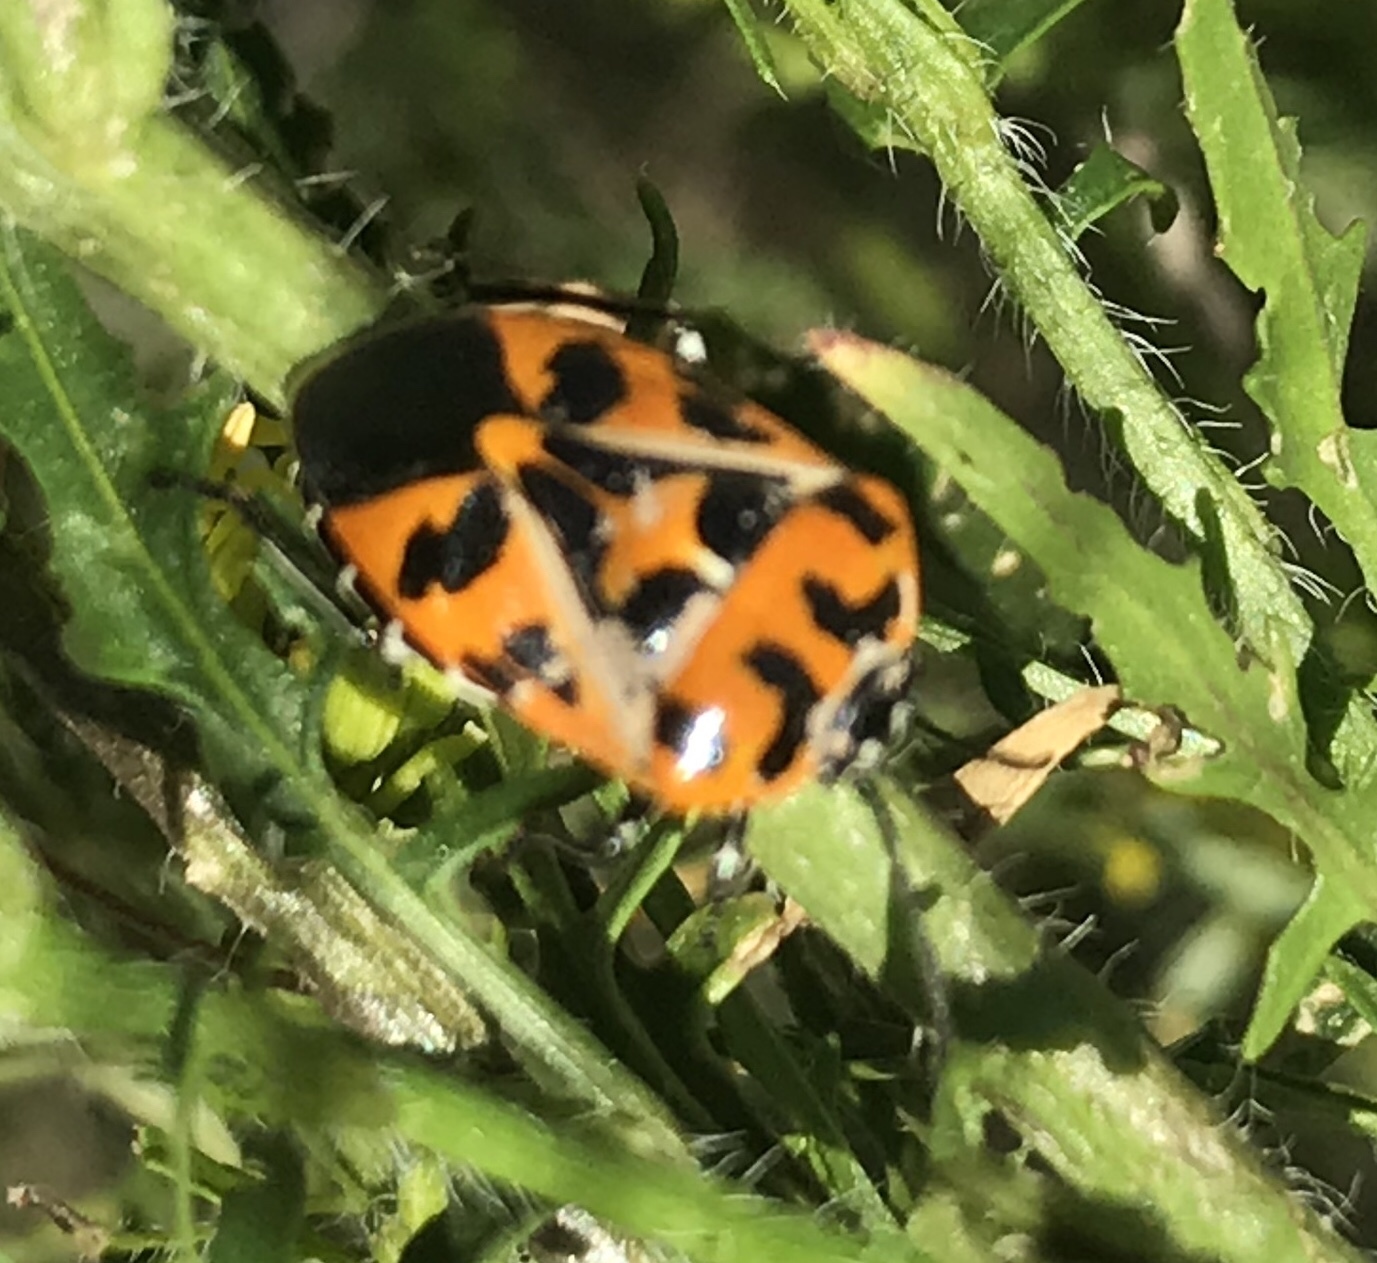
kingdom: Animalia
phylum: Arthropoda
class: Insecta
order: Hemiptera
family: Pentatomidae
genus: Murgantia
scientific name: Murgantia histrionica
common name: Harlequin bug
